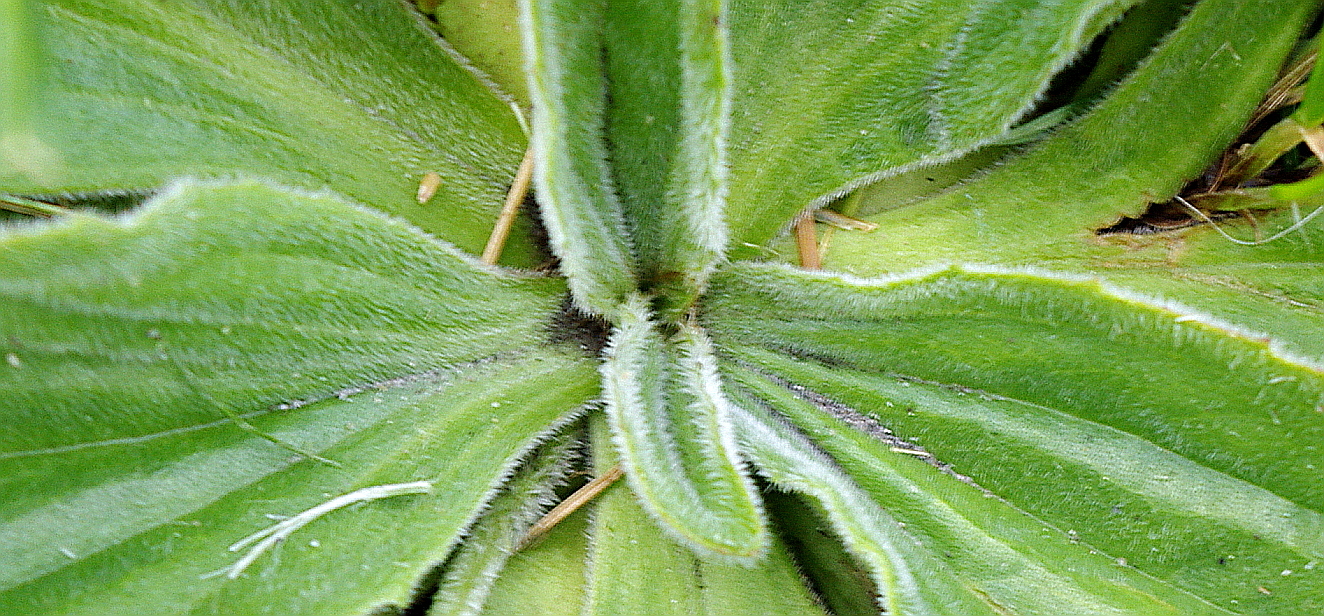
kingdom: Plantae
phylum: Tracheophyta
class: Magnoliopsida
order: Lamiales
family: Plantaginaceae
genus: Plantago
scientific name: Plantago media
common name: Hoary plantain
